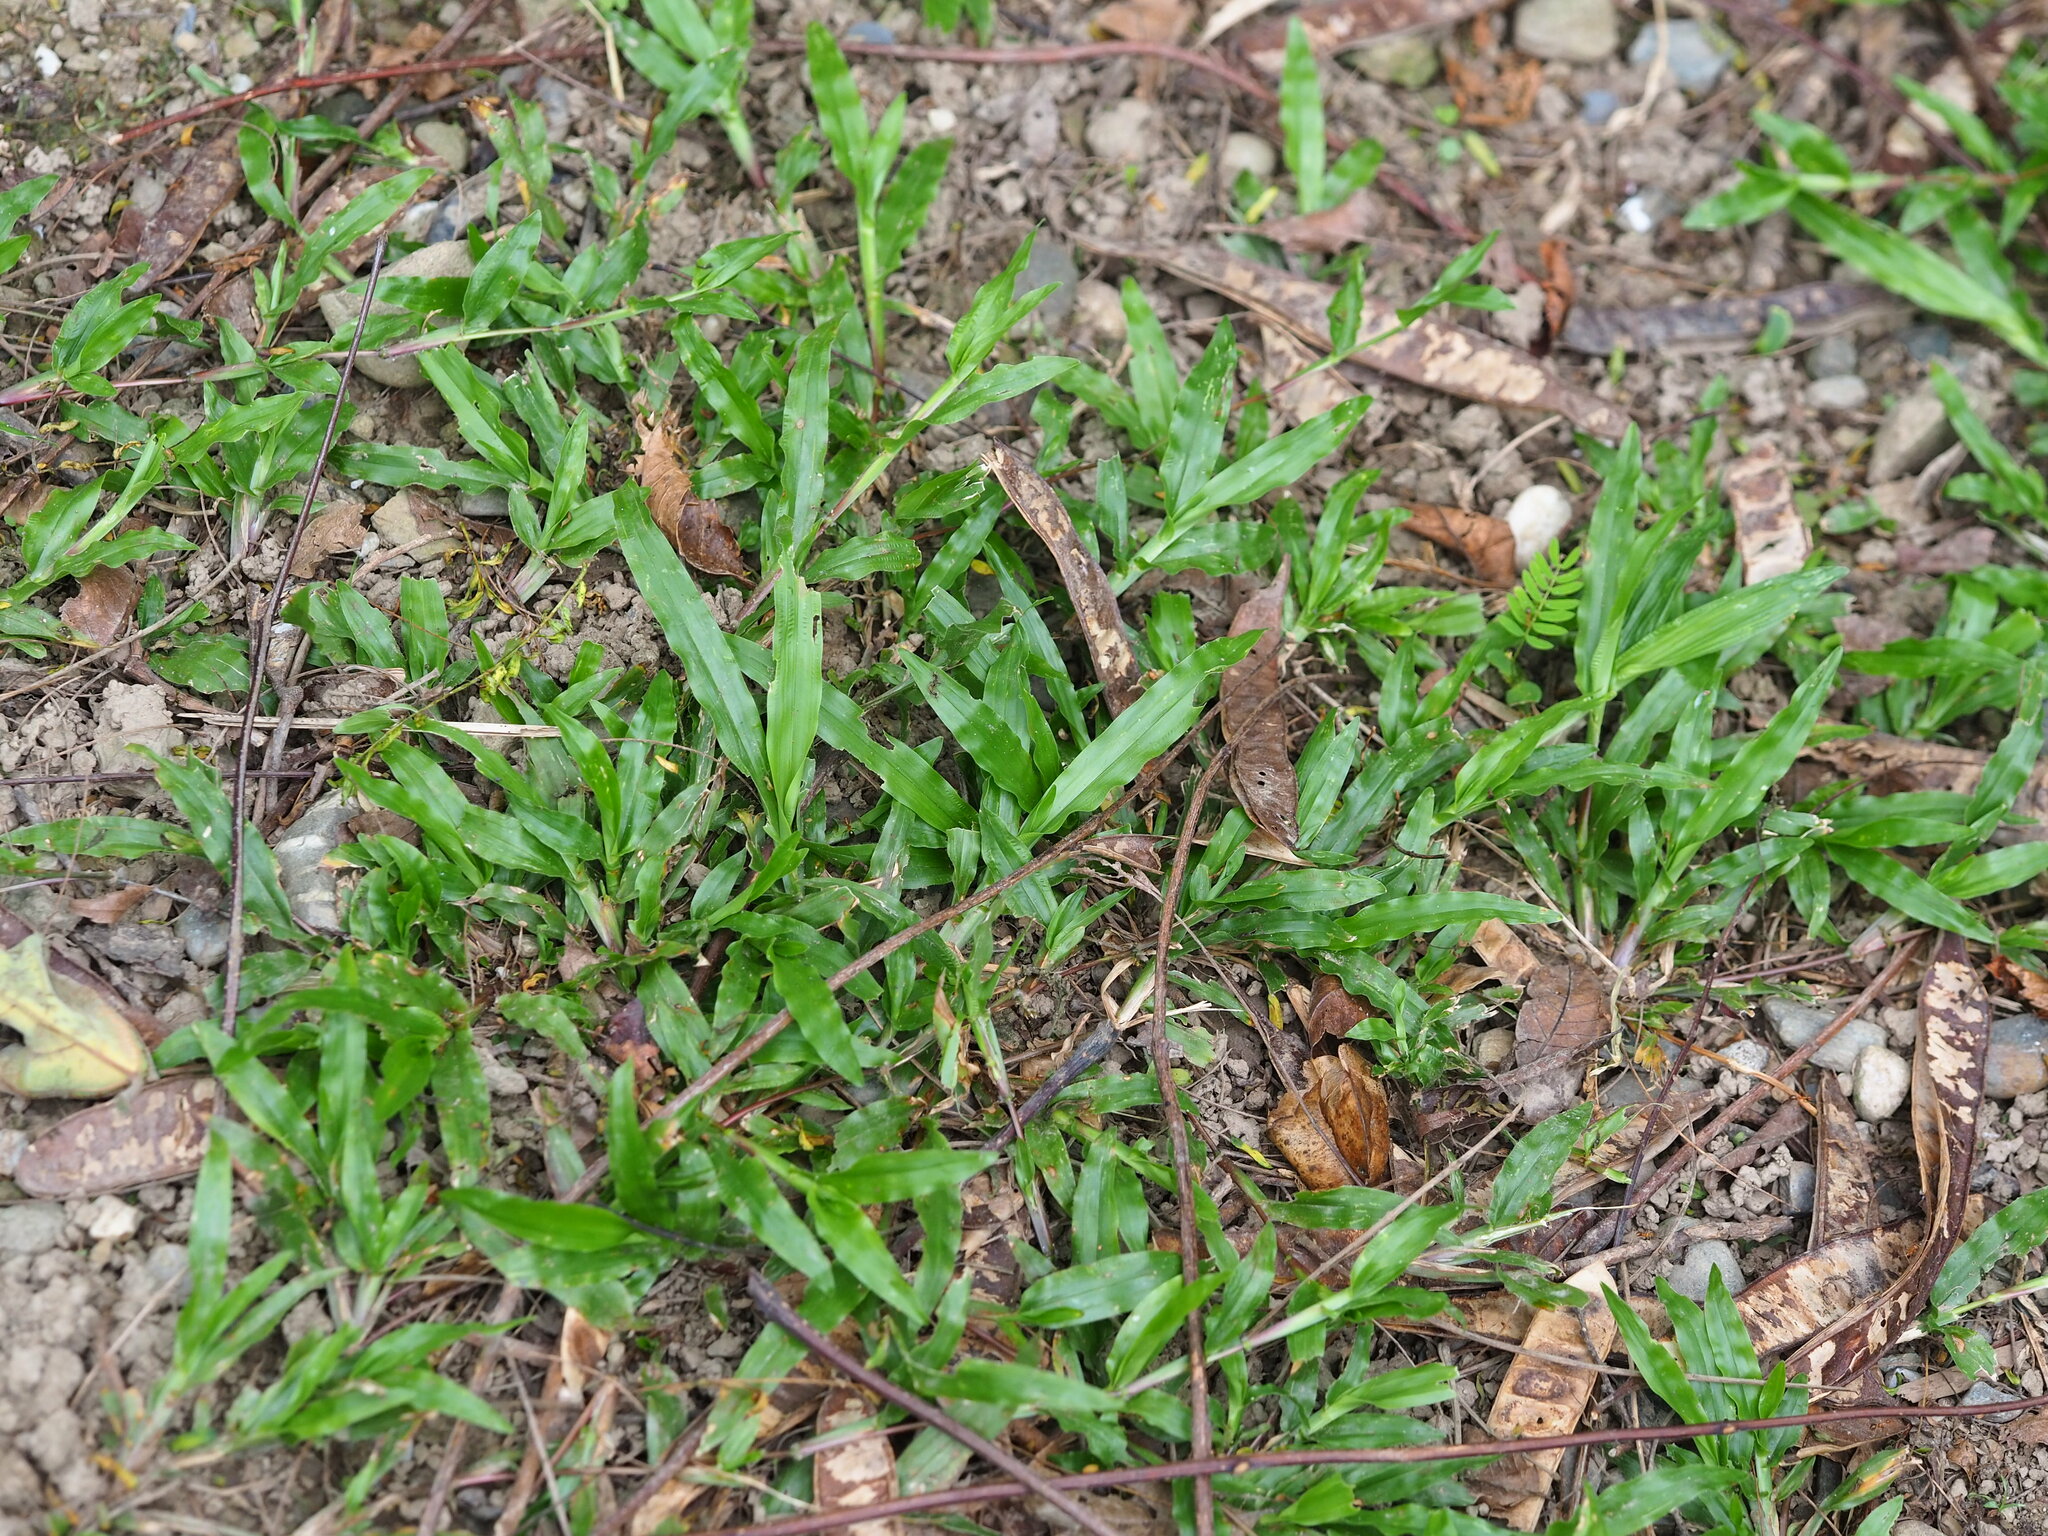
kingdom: Plantae
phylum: Tracheophyta
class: Liliopsida
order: Poales
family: Poaceae
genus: Axonopus
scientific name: Axonopus compressus
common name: American carpet grass
